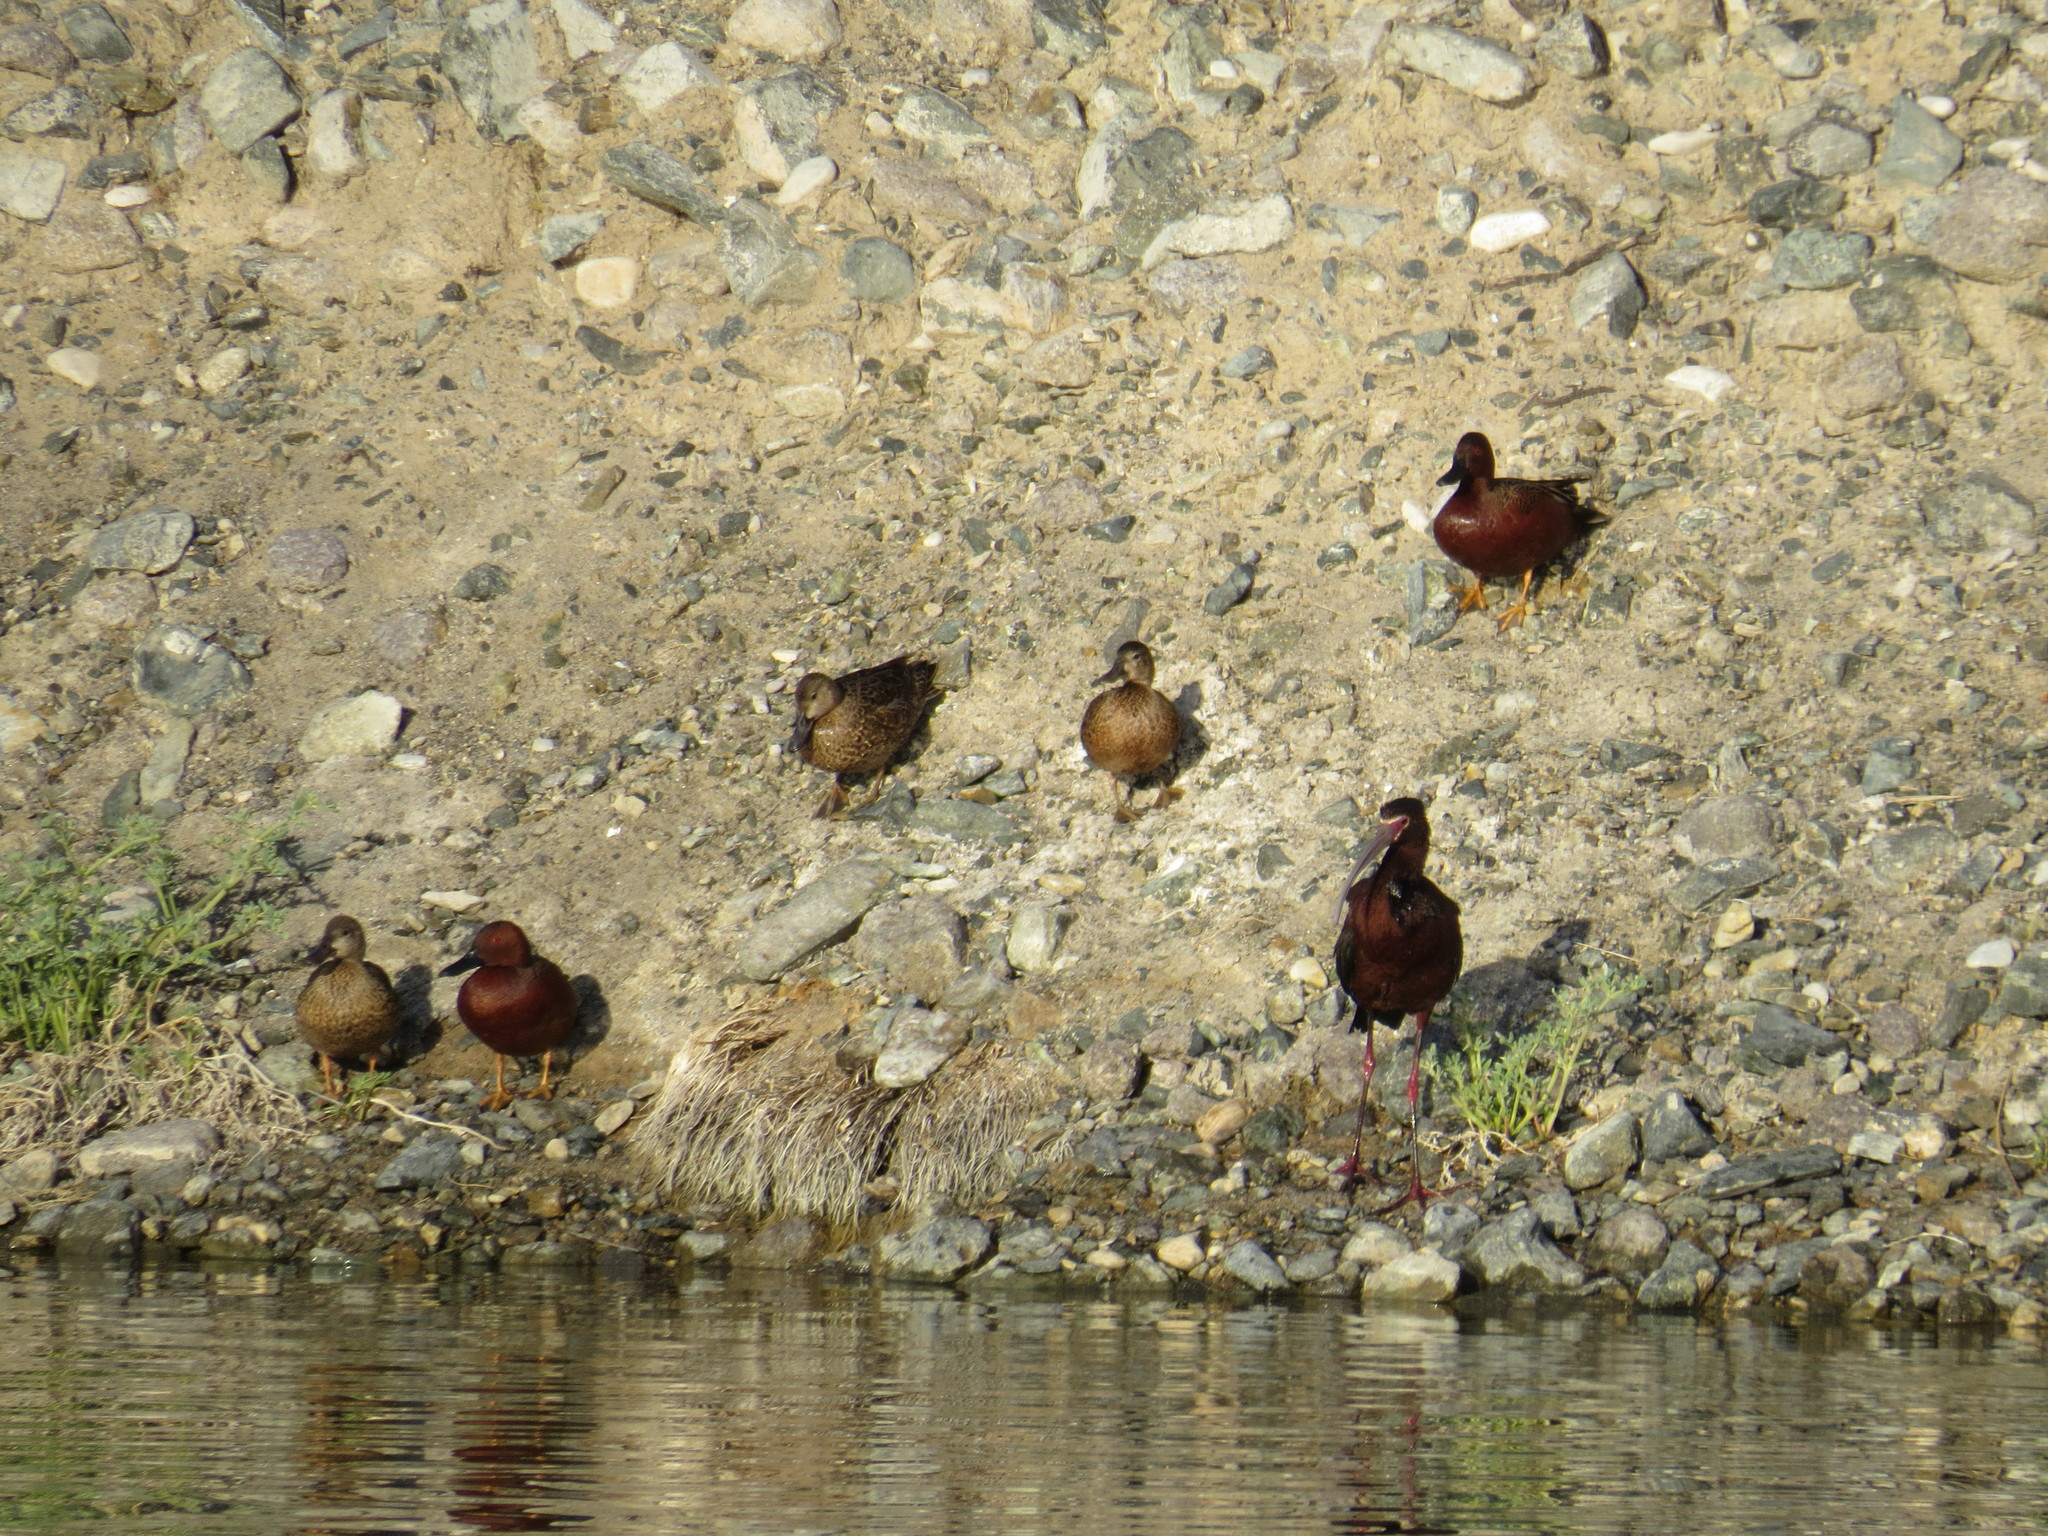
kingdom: Animalia
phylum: Chordata
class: Aves
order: Pelecaniformes
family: Threskiornithidae
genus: Plegadis
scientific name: Plegadis chihi
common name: White-faced ibis
